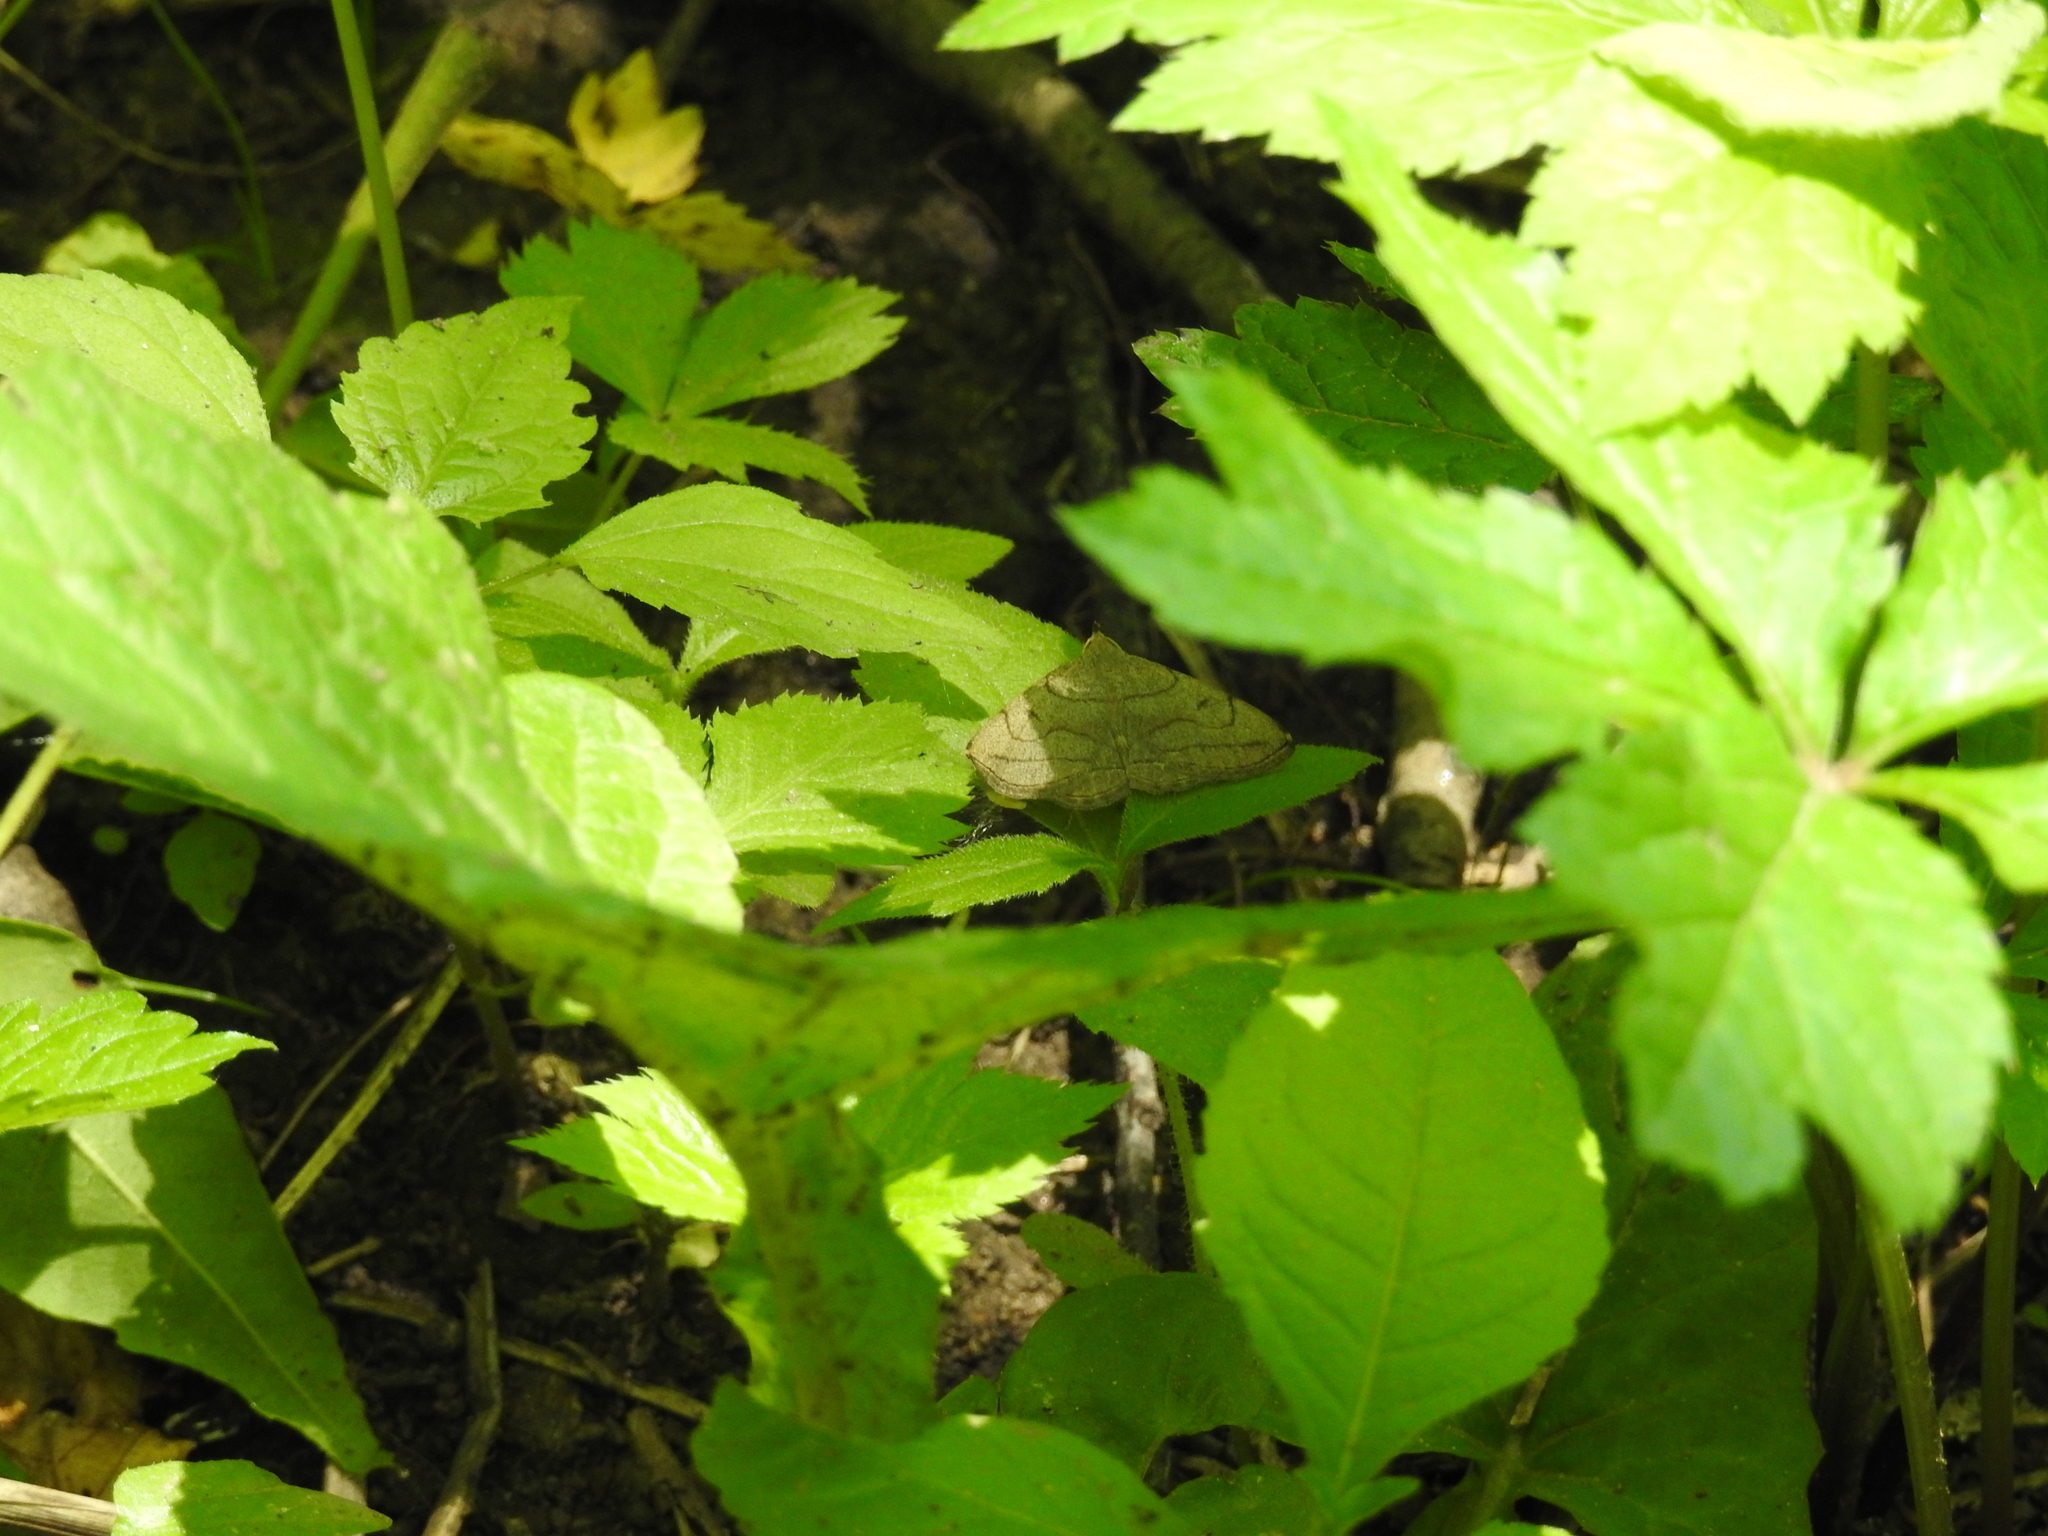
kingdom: Animalia
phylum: Arthropoda
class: Insecta
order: Lepidoptera
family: Erebidae
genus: Zanclognatha
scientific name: Zanclognatha pedipilalis
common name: Grayish fan-foot
